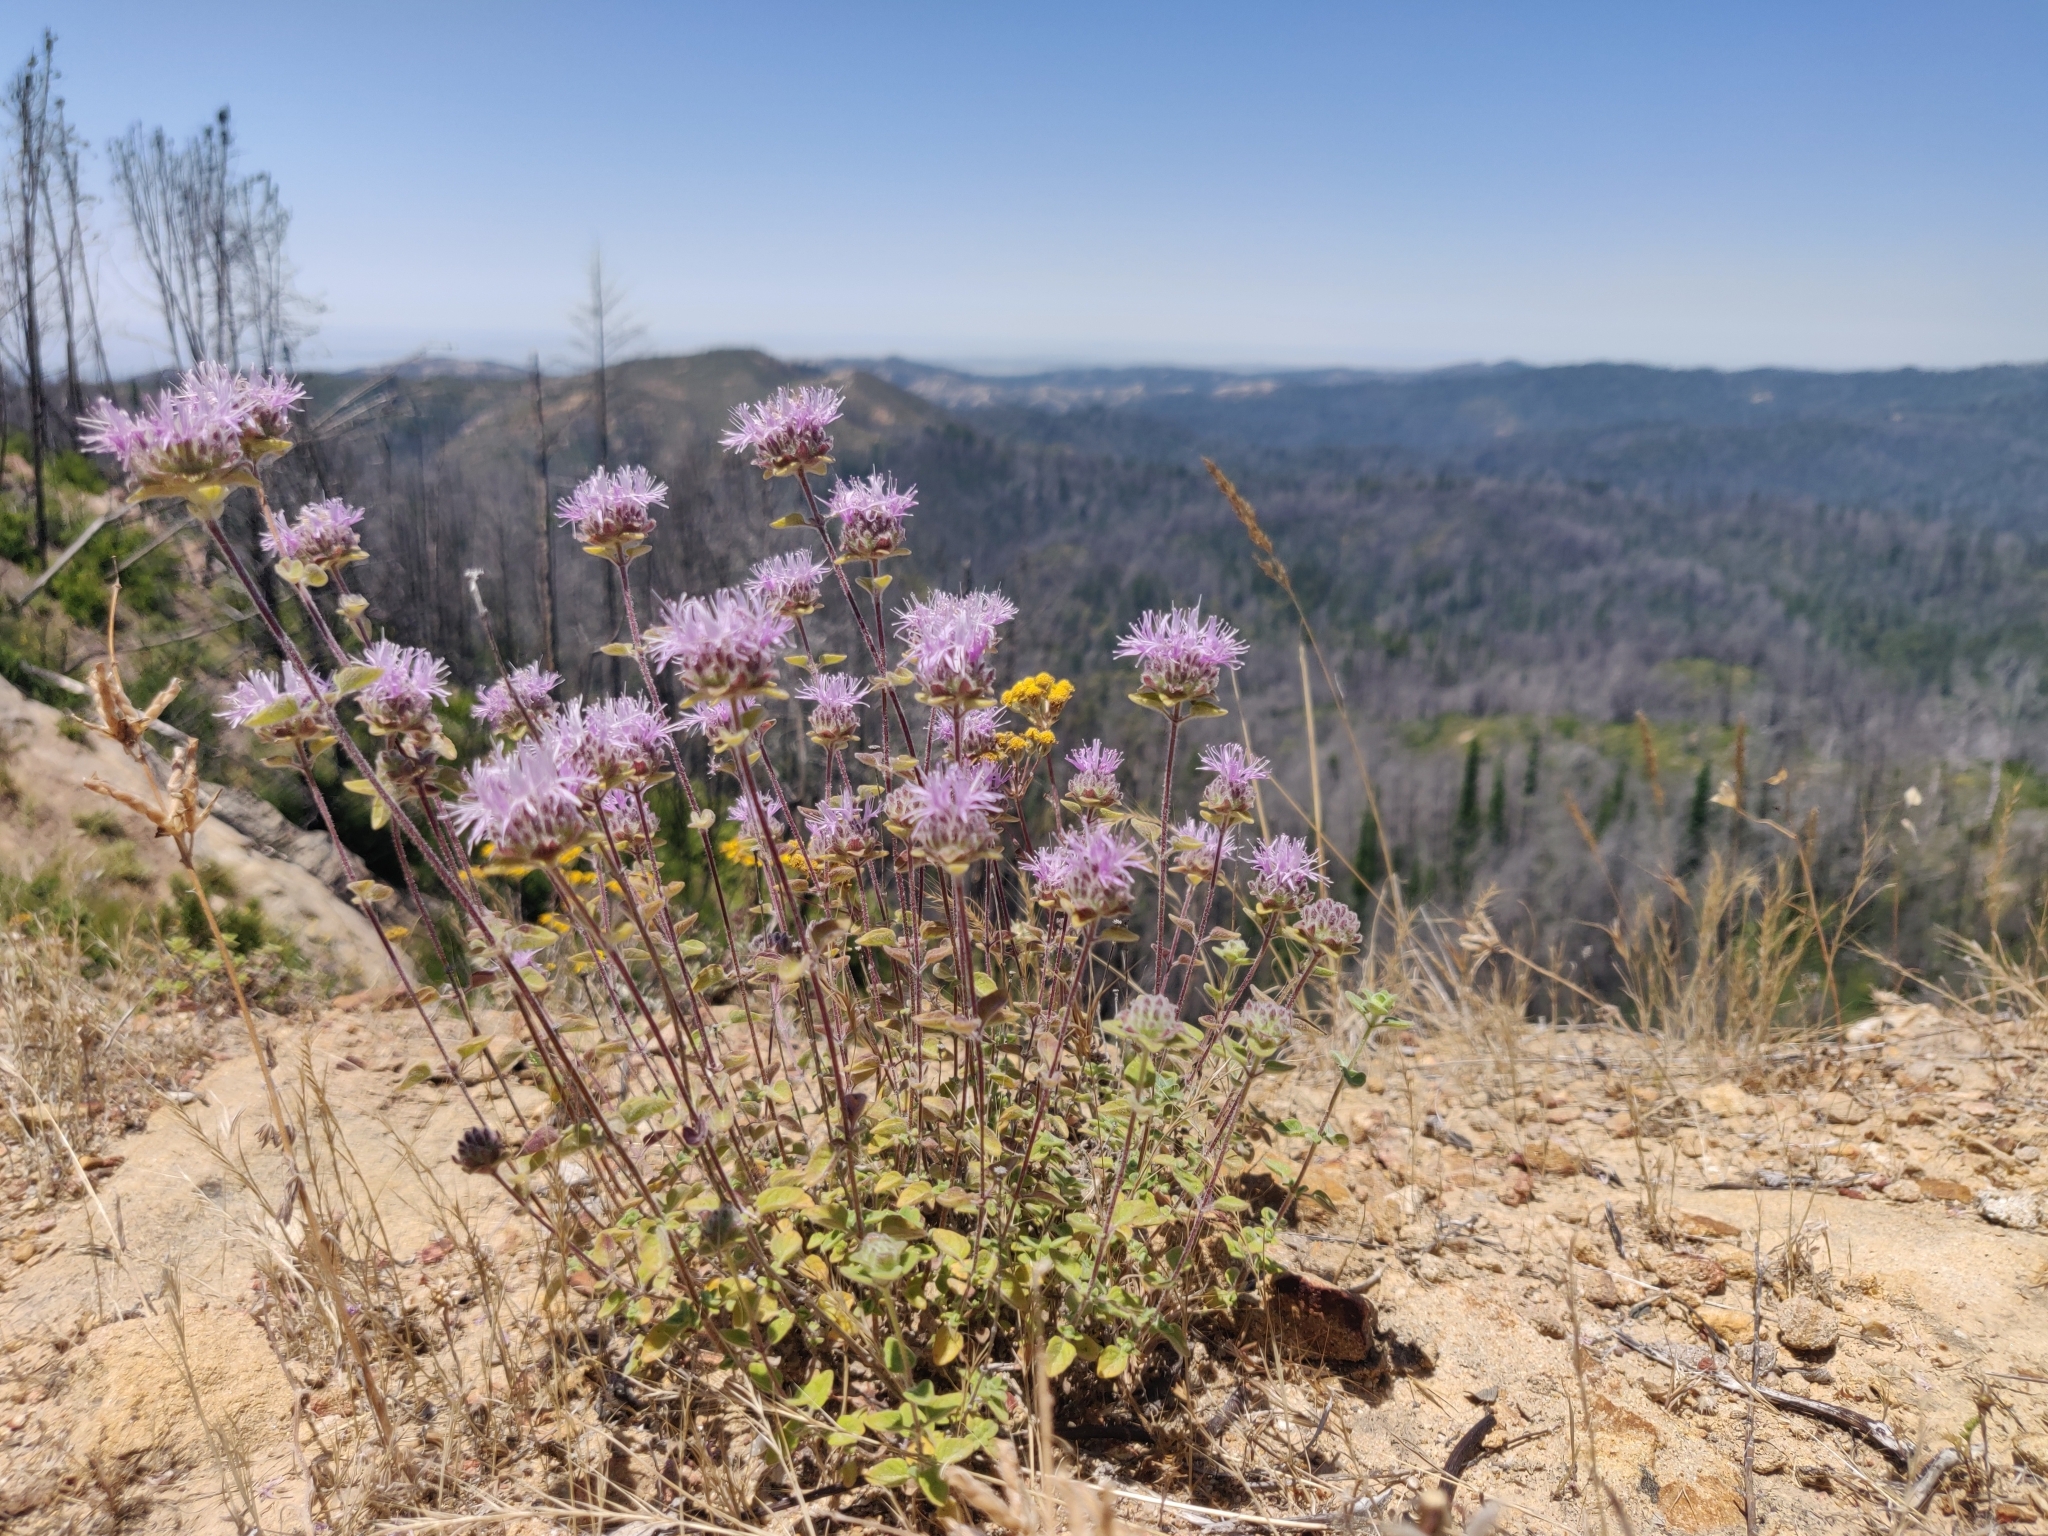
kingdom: Plantae
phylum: Tracheophyta
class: Magnoliopsida
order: Lamiales
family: Lamiaceae
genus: Monardella
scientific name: Monardella odoratissima
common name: Pacific monardella
